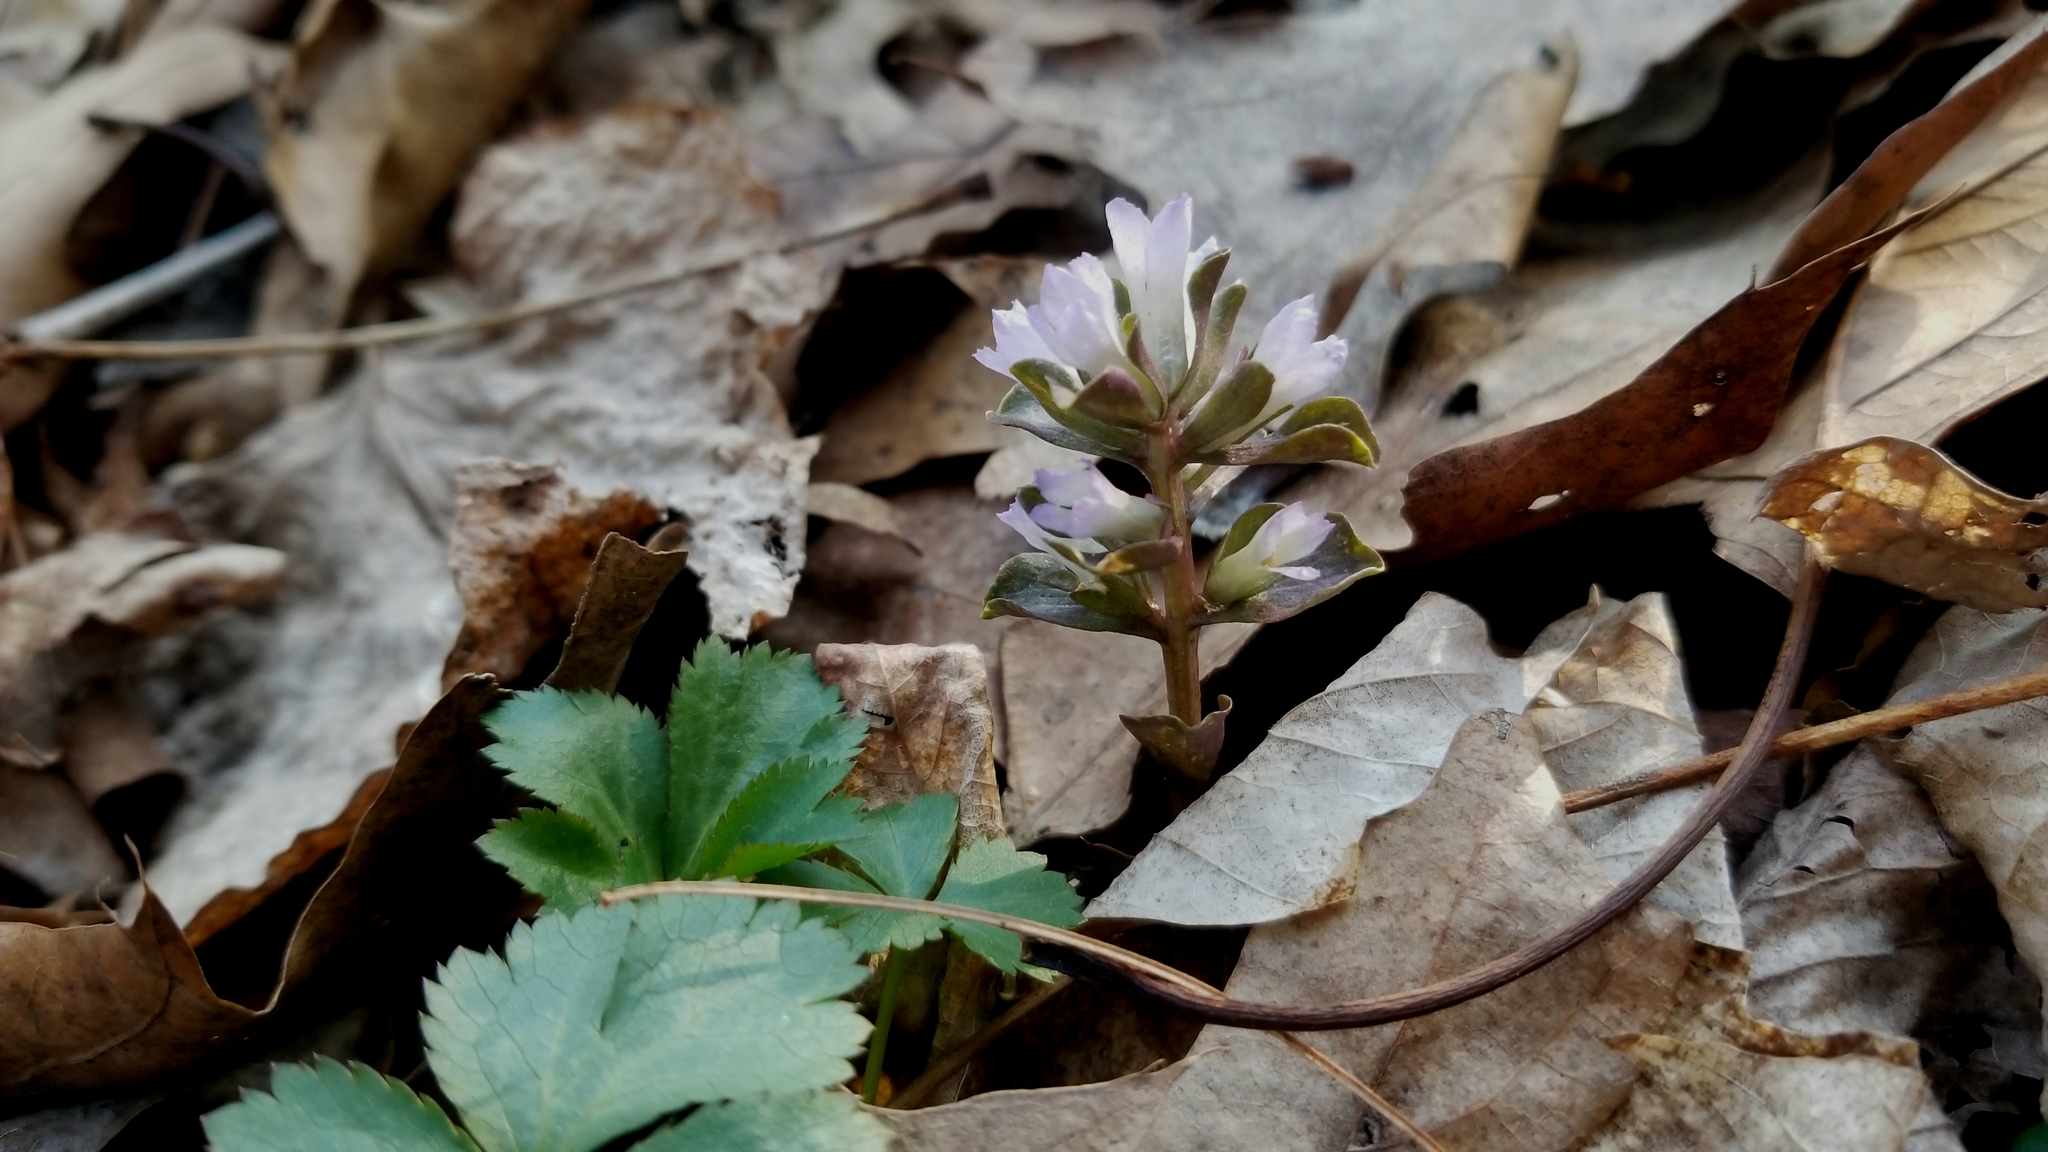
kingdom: Plantae
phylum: Tracheophyta
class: Magnoliopsida
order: Gentianales
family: Gentianaceae
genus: Obolaria
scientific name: Obolaria virginica
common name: Pennywort
